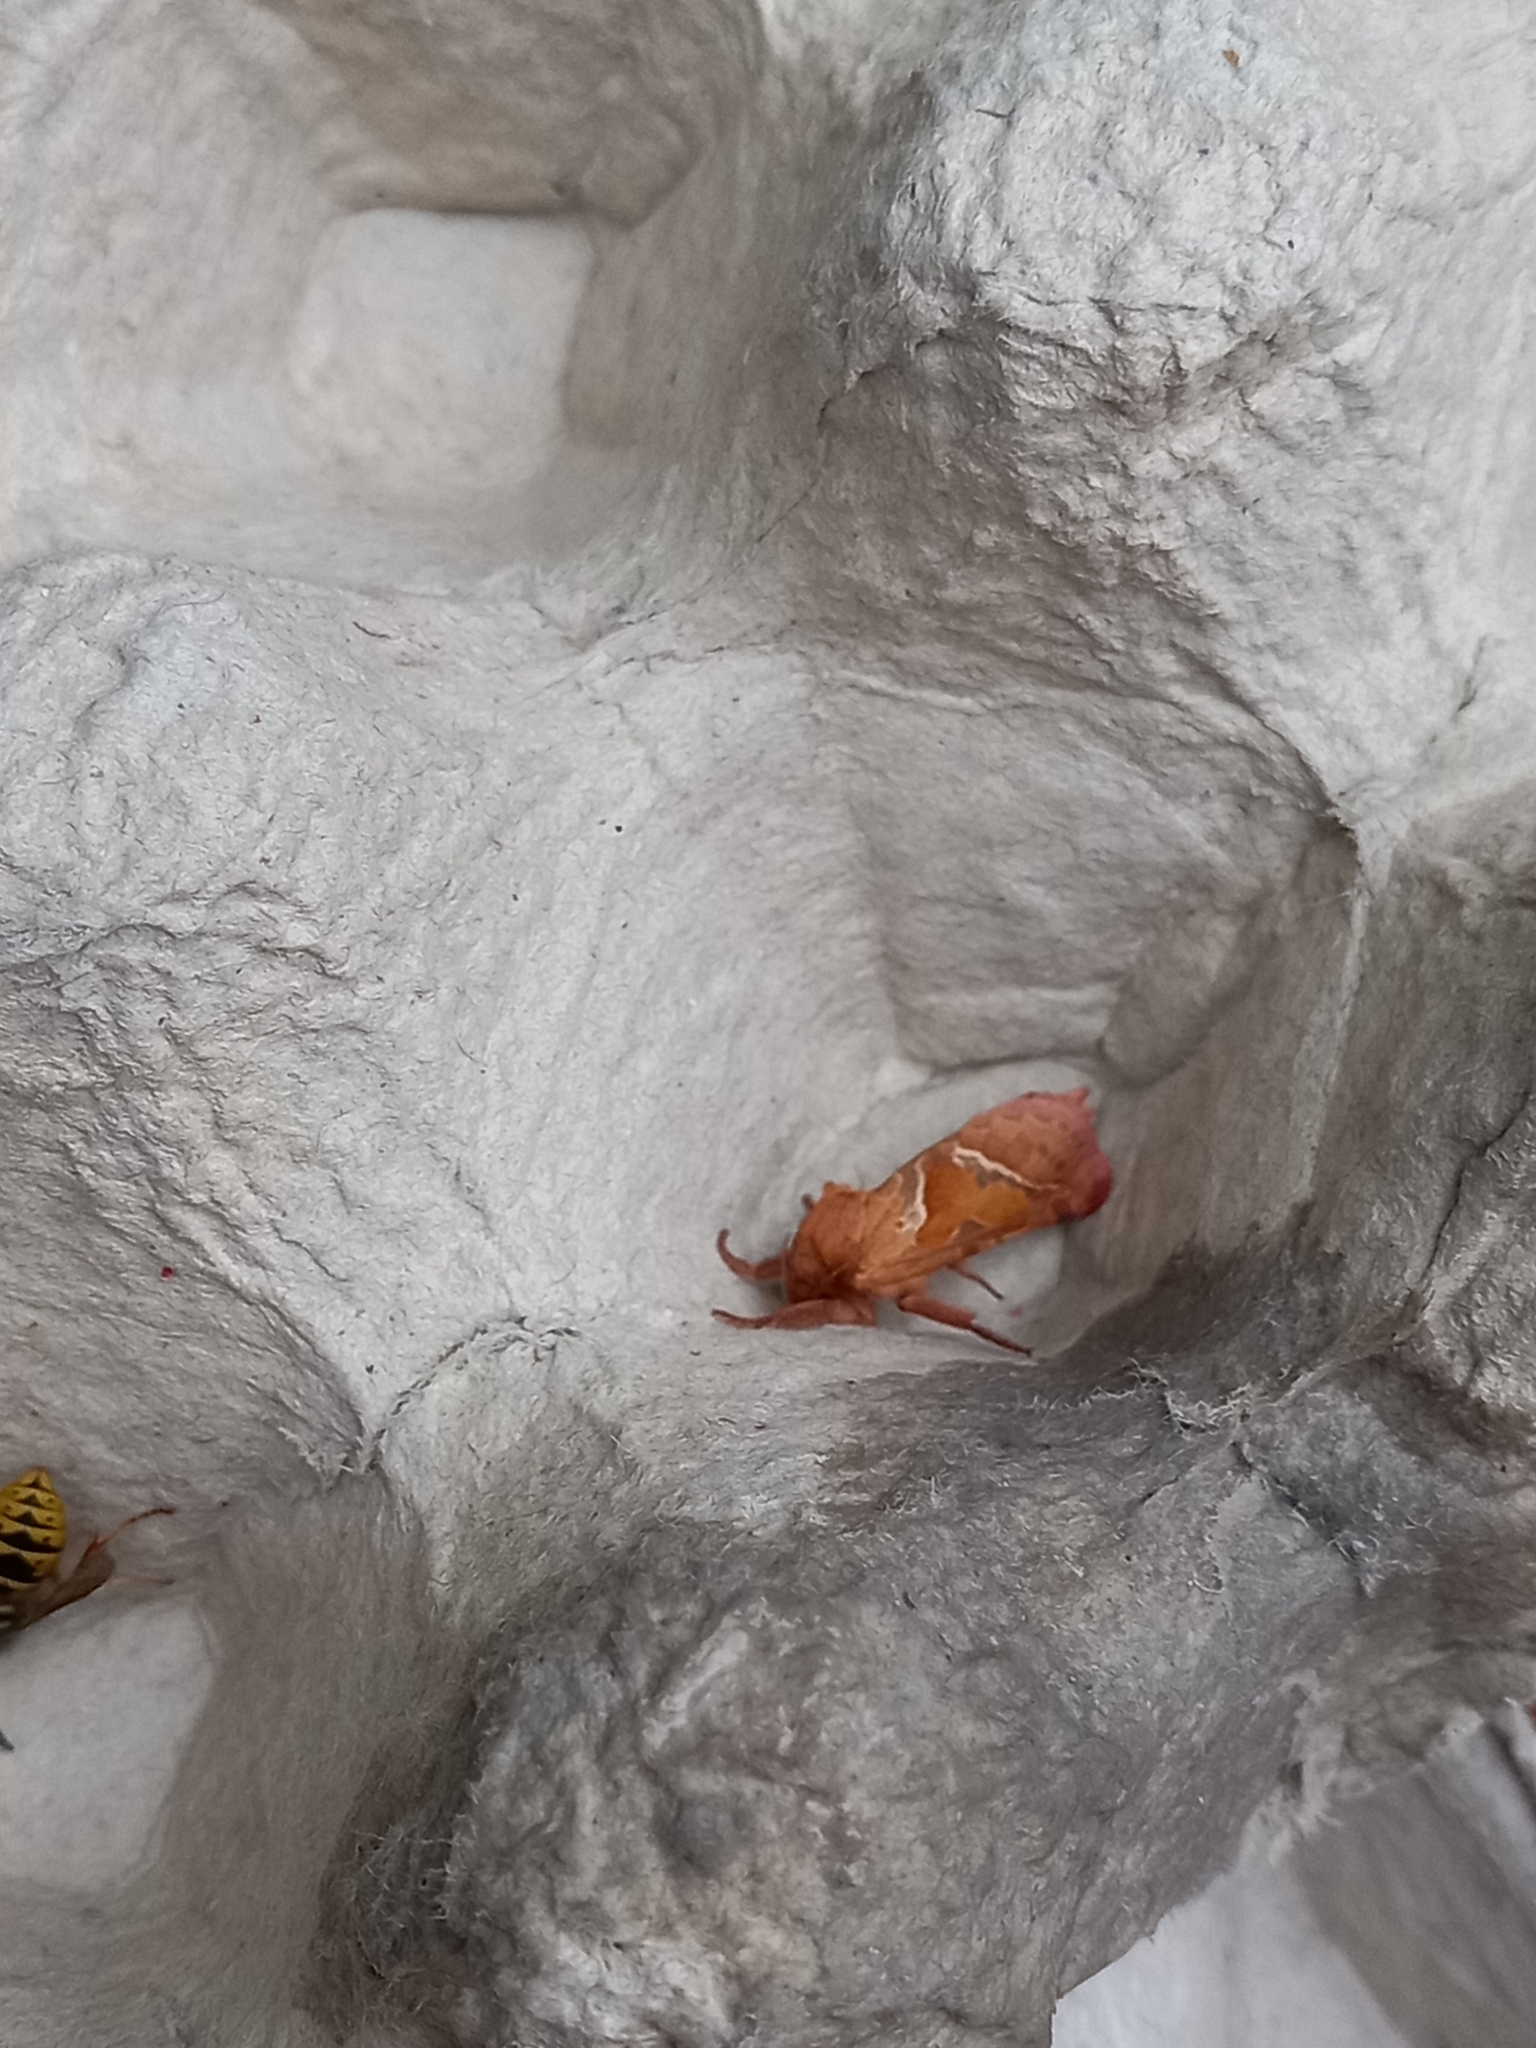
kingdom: Animalia
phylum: Arthropoda
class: Insecta
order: Lepidoptera
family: Hepialidae
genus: Triodia
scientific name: Triodia sylvina
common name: Orange swift
